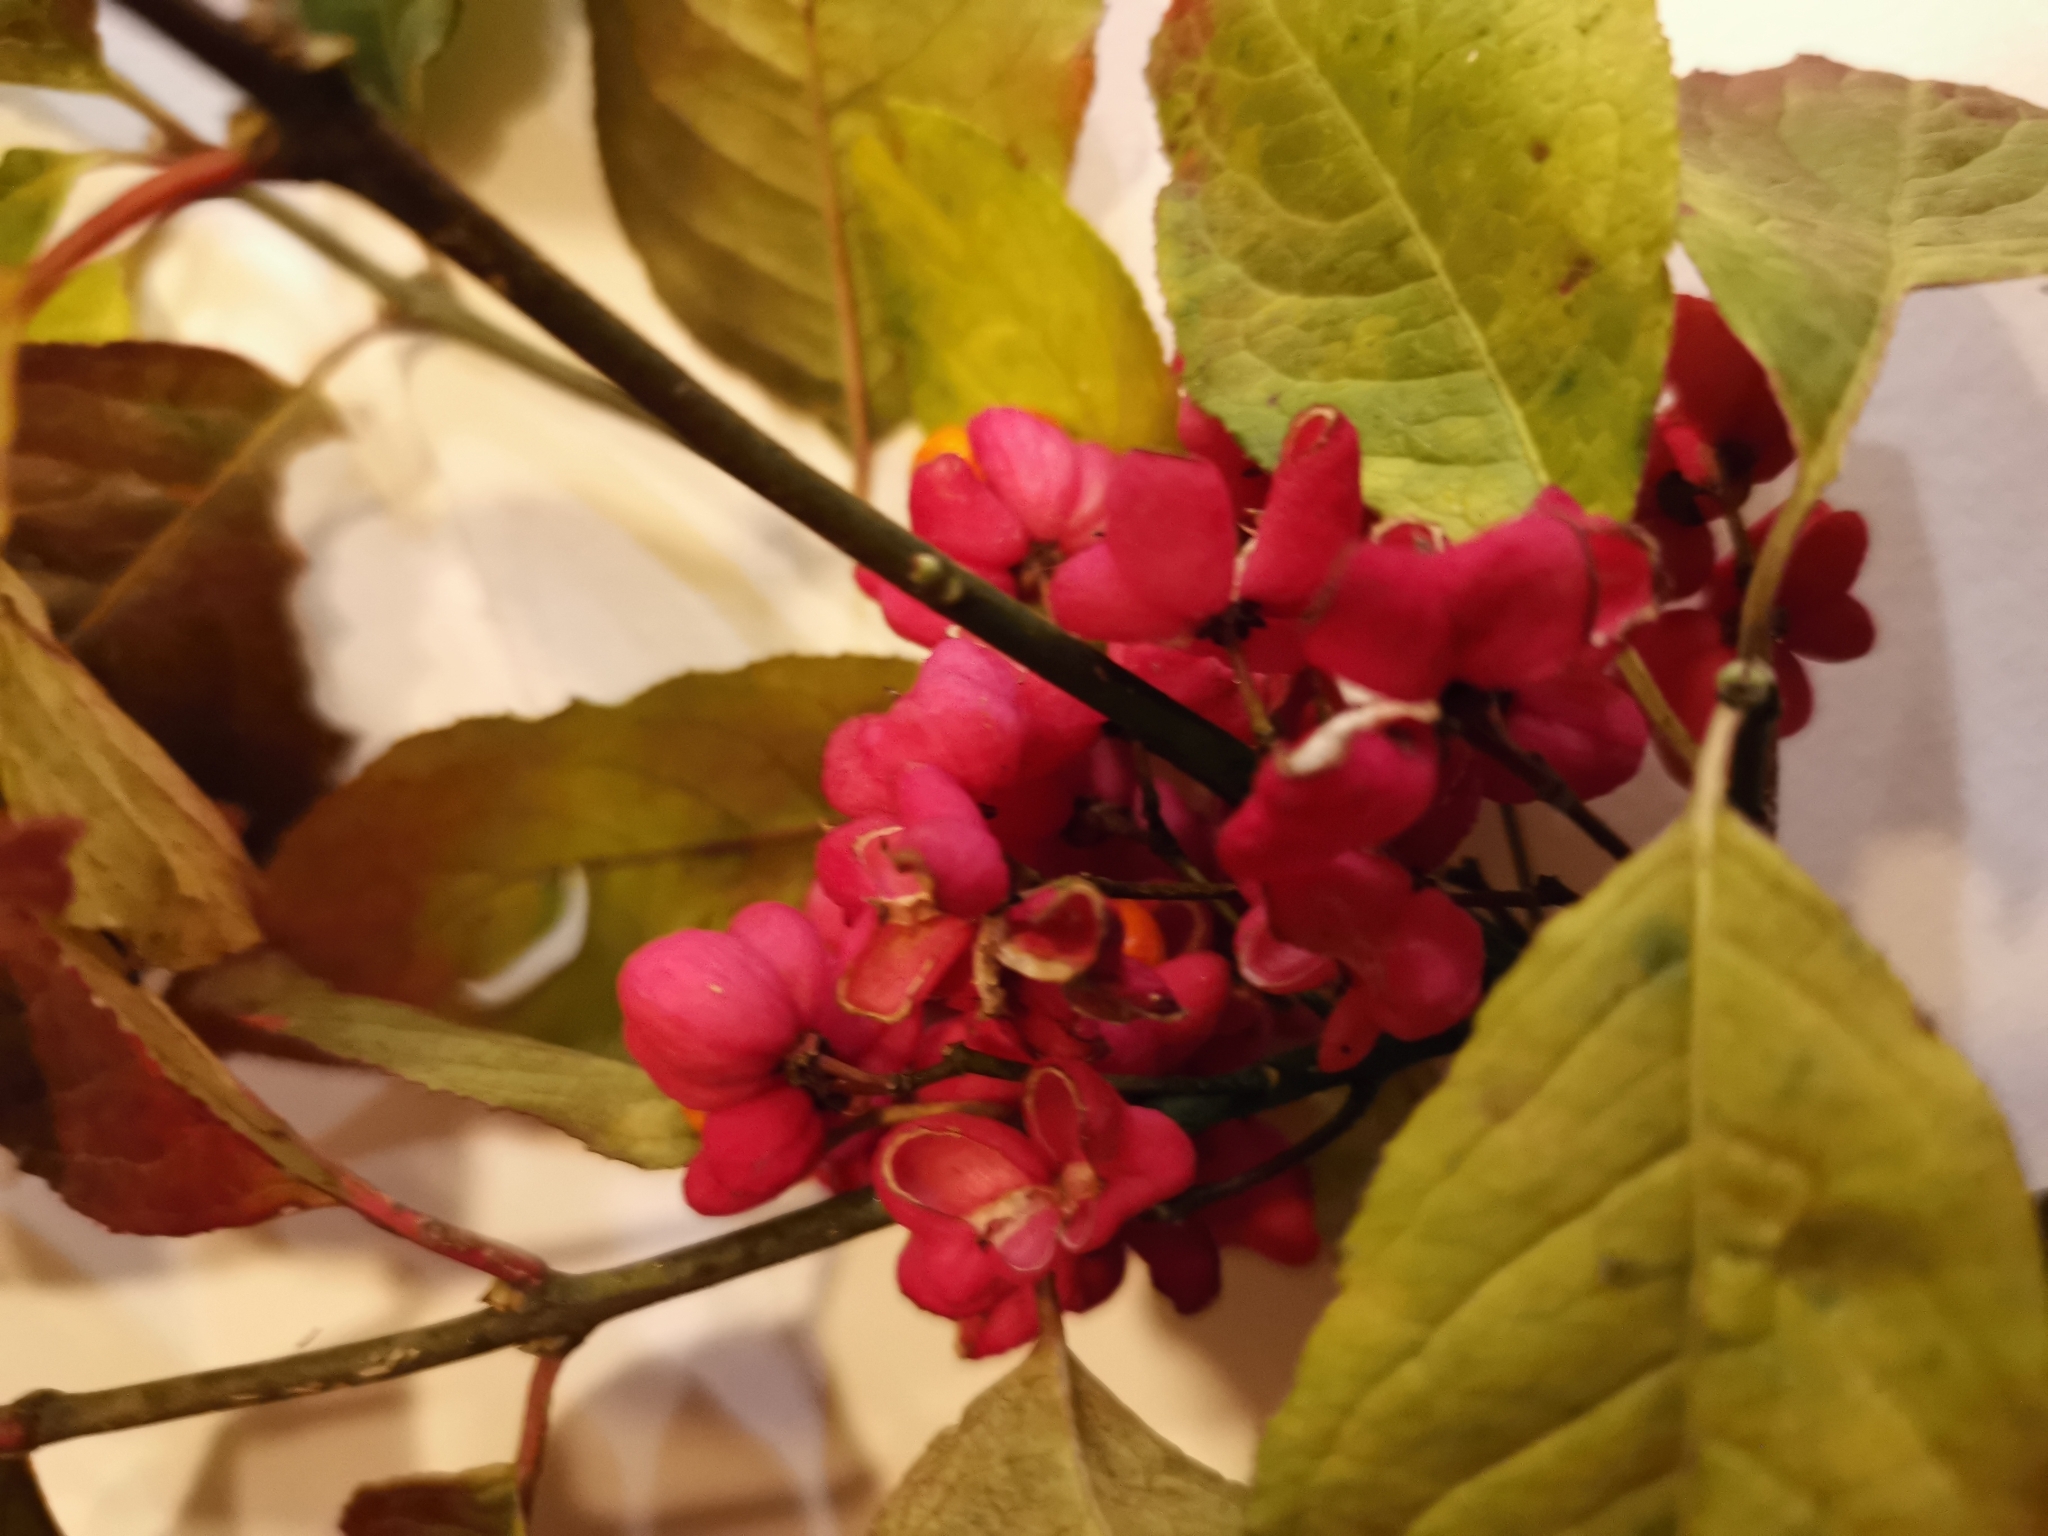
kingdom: Plantae
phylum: Tracheophyta
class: Magnoliopsida
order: Celastrales
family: Celastraceae
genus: Euonymus
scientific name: Euonymus europaeus
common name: Spindle
